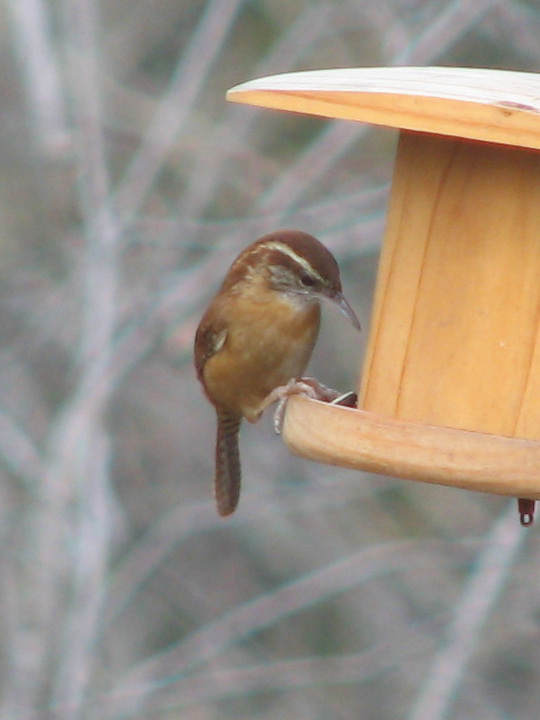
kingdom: Animalia
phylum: Chordata
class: Aves
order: Passeriformes
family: Troglodytidae
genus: Thryothorus
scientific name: Thryothorus ludovicianus
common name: Carolina wren
